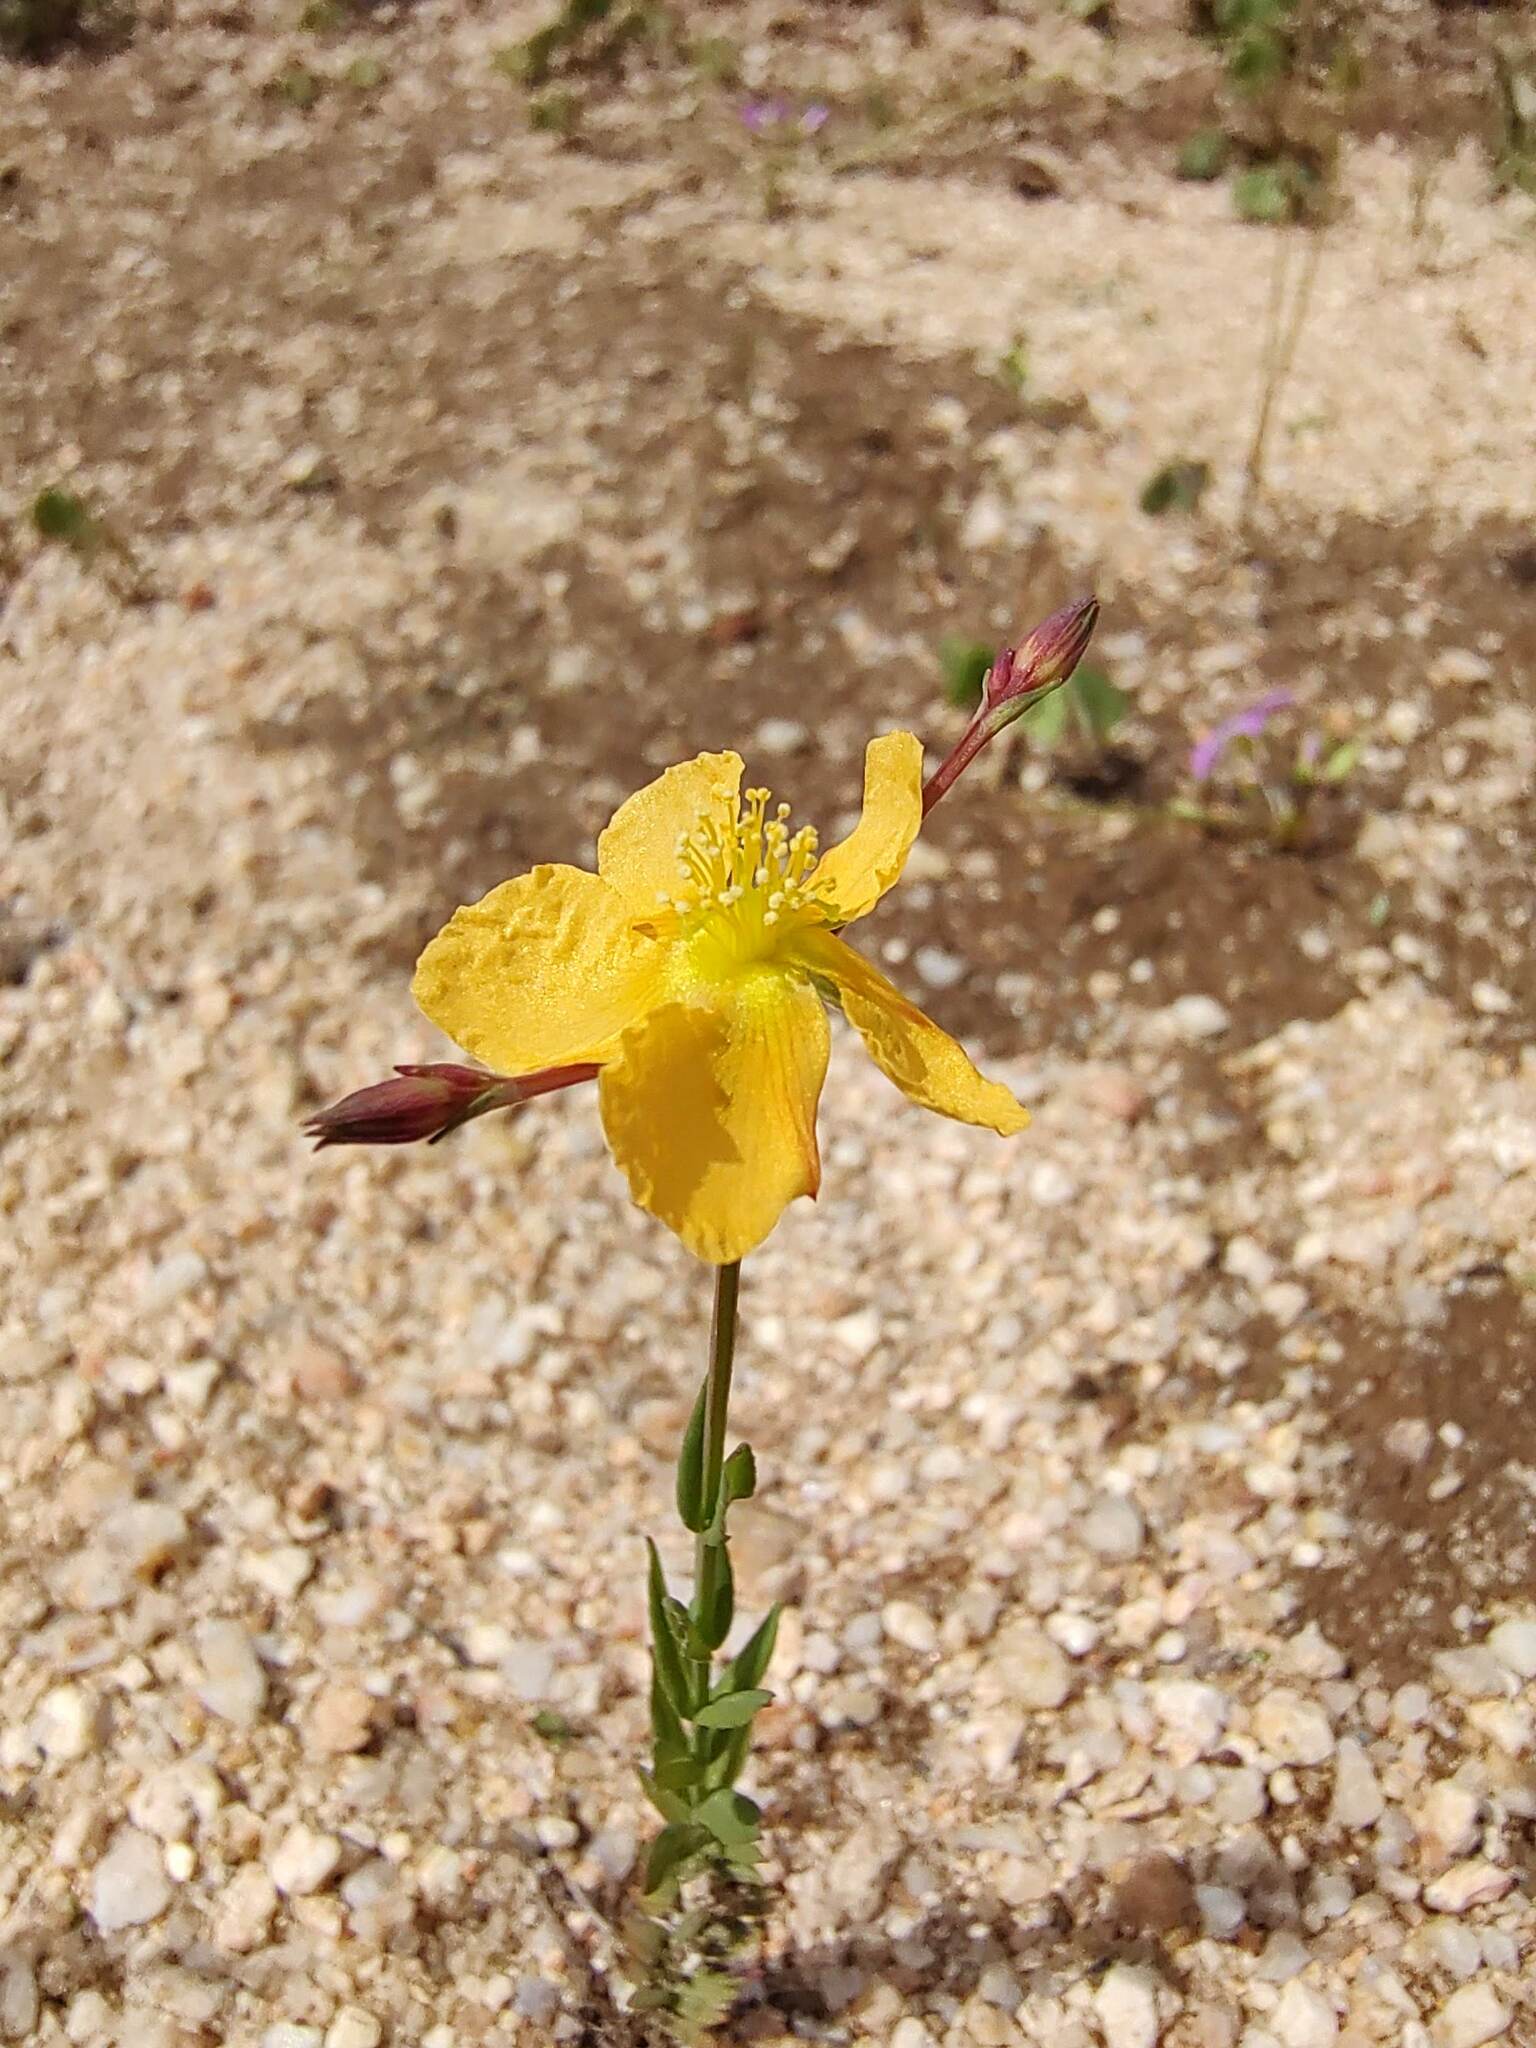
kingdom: Plantae
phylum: Tracheophyta
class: Magnoliopsida
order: Malpighiales
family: Hypericaceae
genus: Hypericum
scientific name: Hypericum peninsulare
